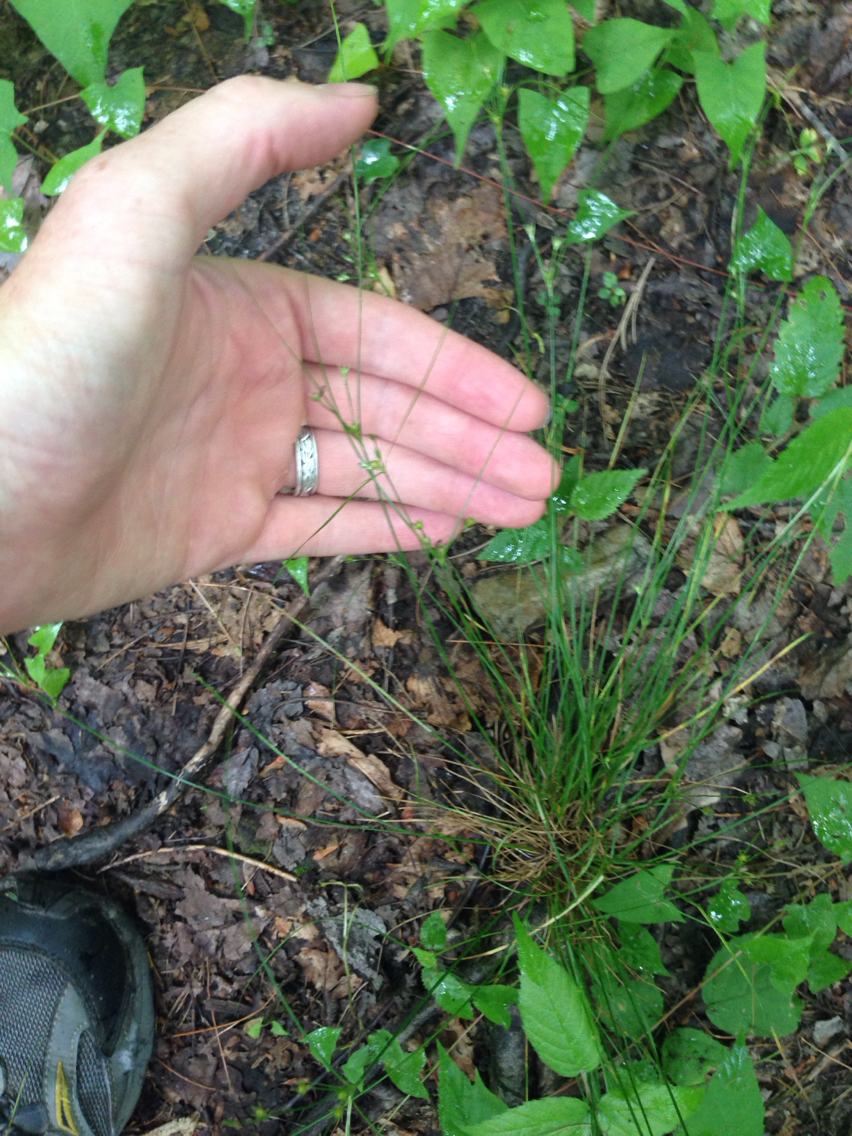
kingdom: Plantae
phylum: Tracheophyta
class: Liliopsida
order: Poales
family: Juncaceae
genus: Juncus
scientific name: Juncus tenuis
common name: Slender rush
